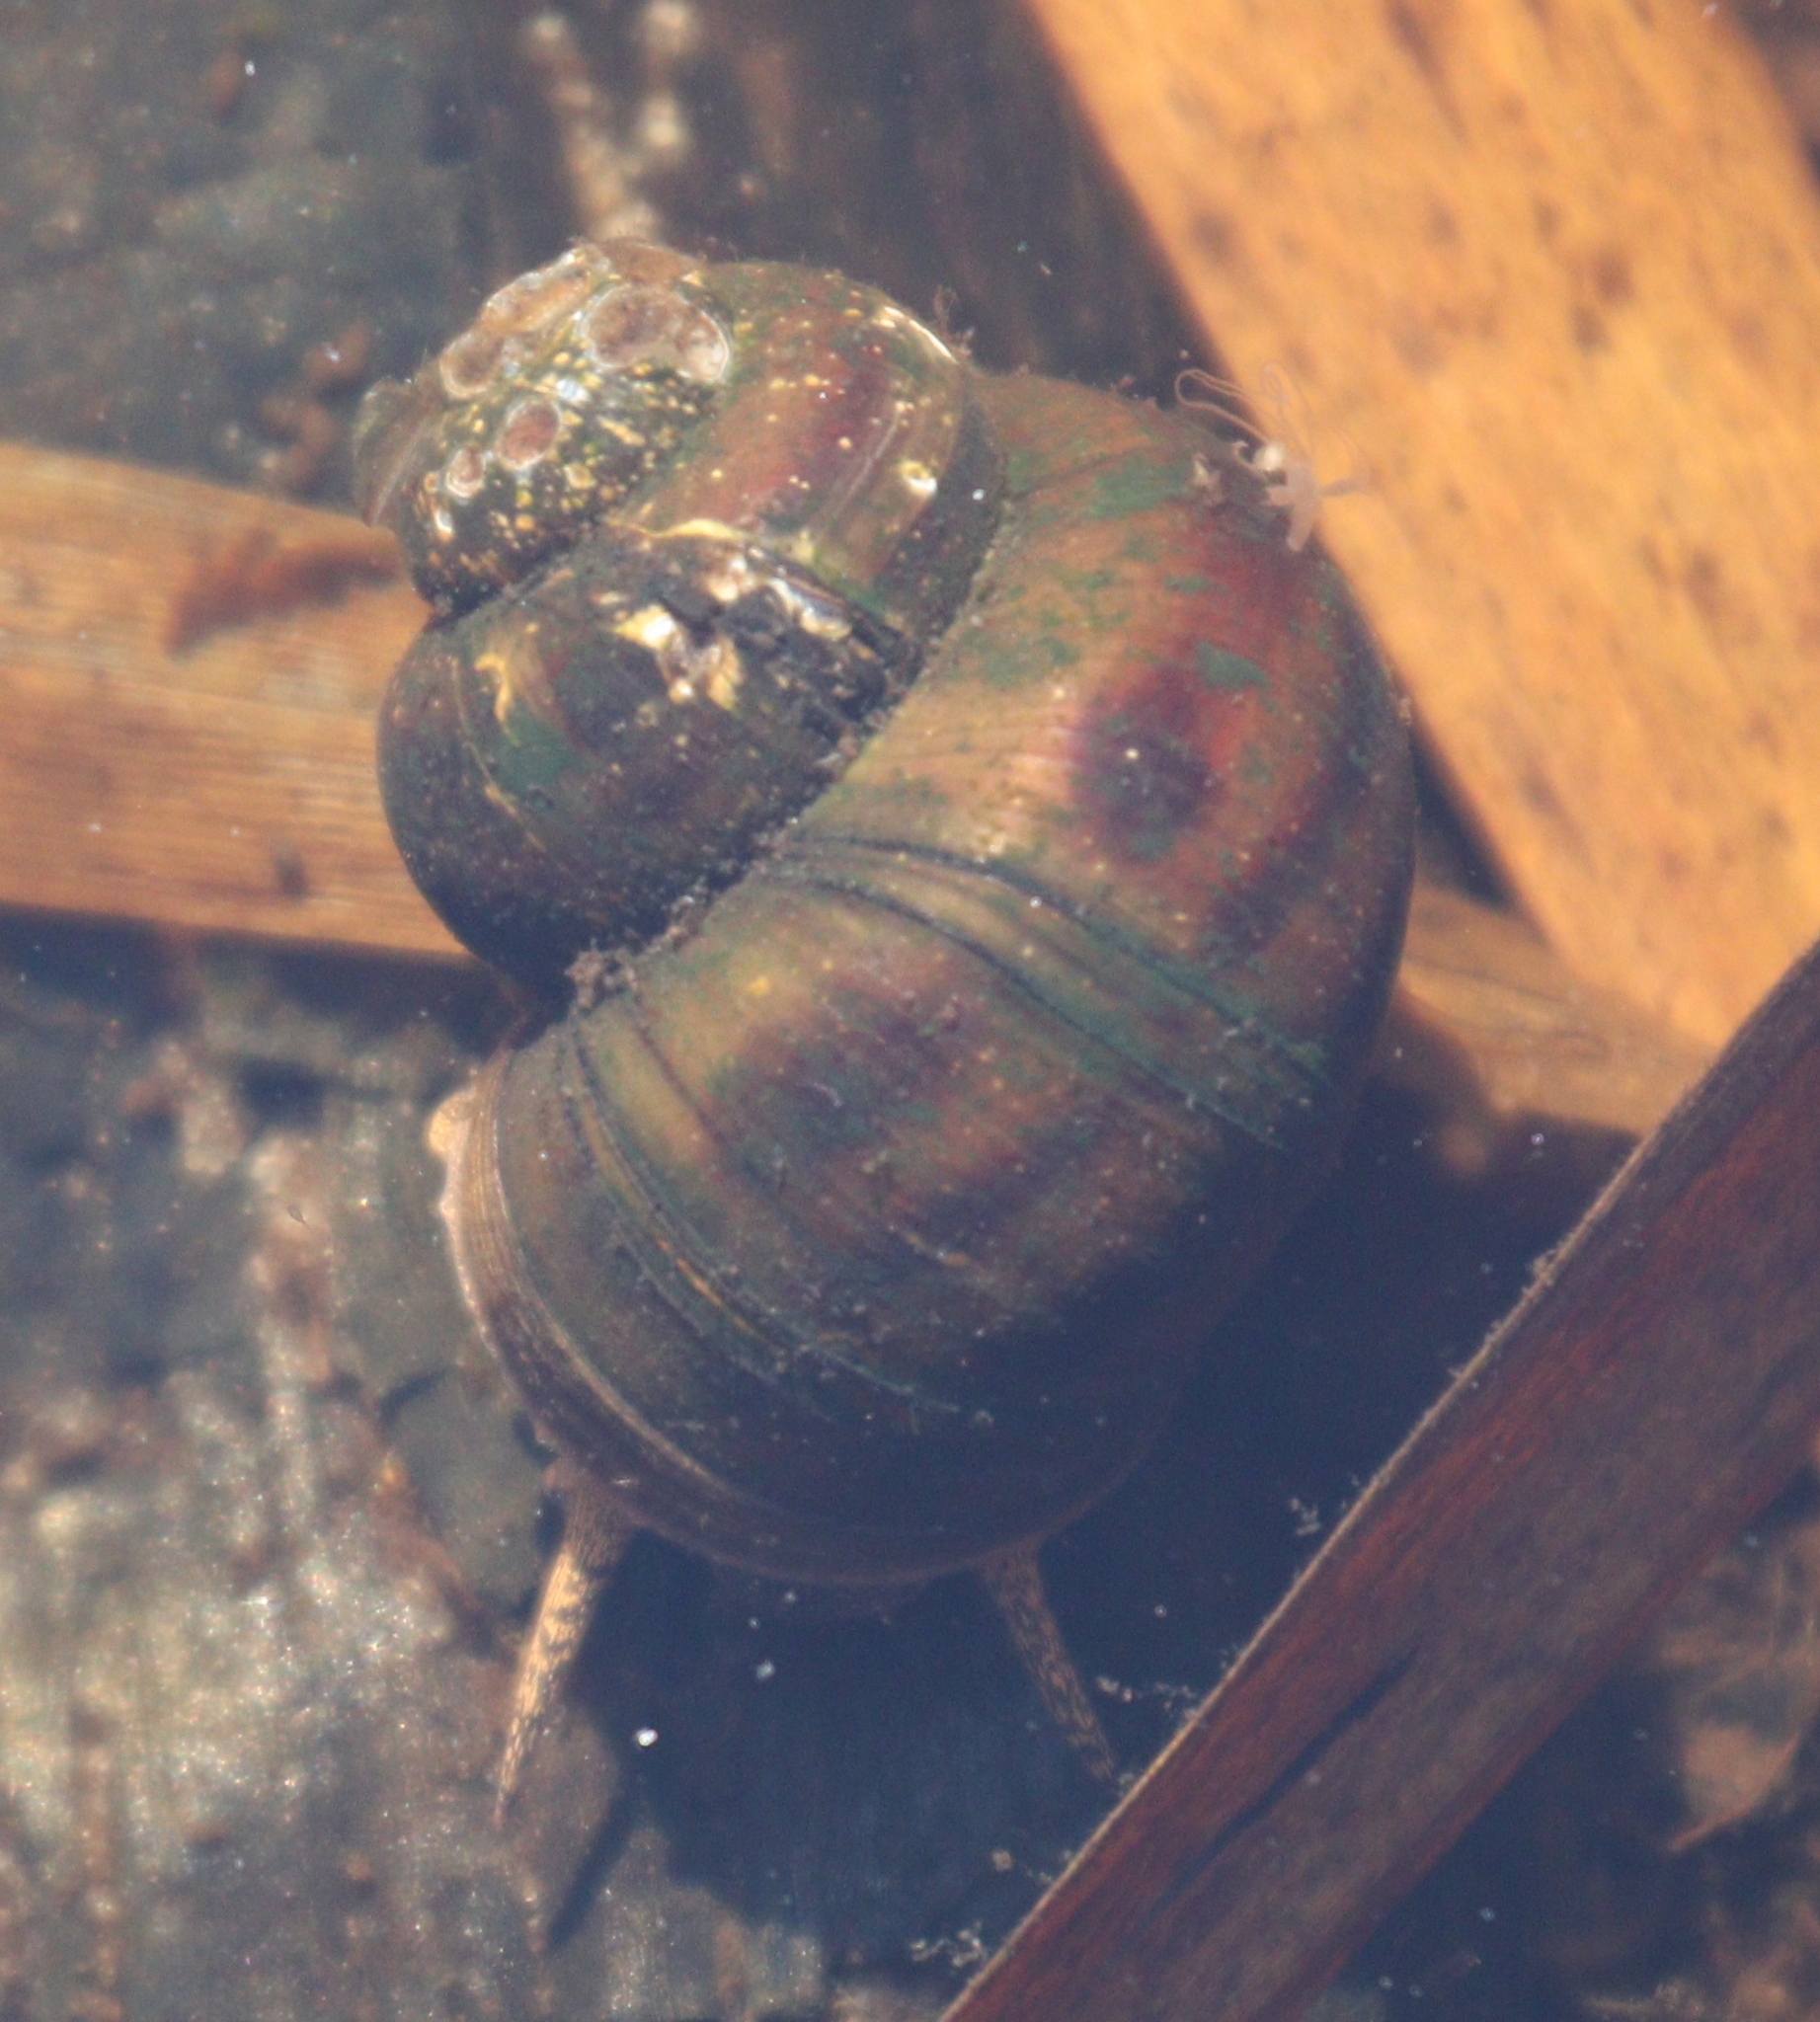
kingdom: Animalia
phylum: Mollusca
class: Gastropoda
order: Architaenioglossa
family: Viviparidae
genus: Viviparus
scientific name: Viviparus contectus
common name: Lister's river snail
